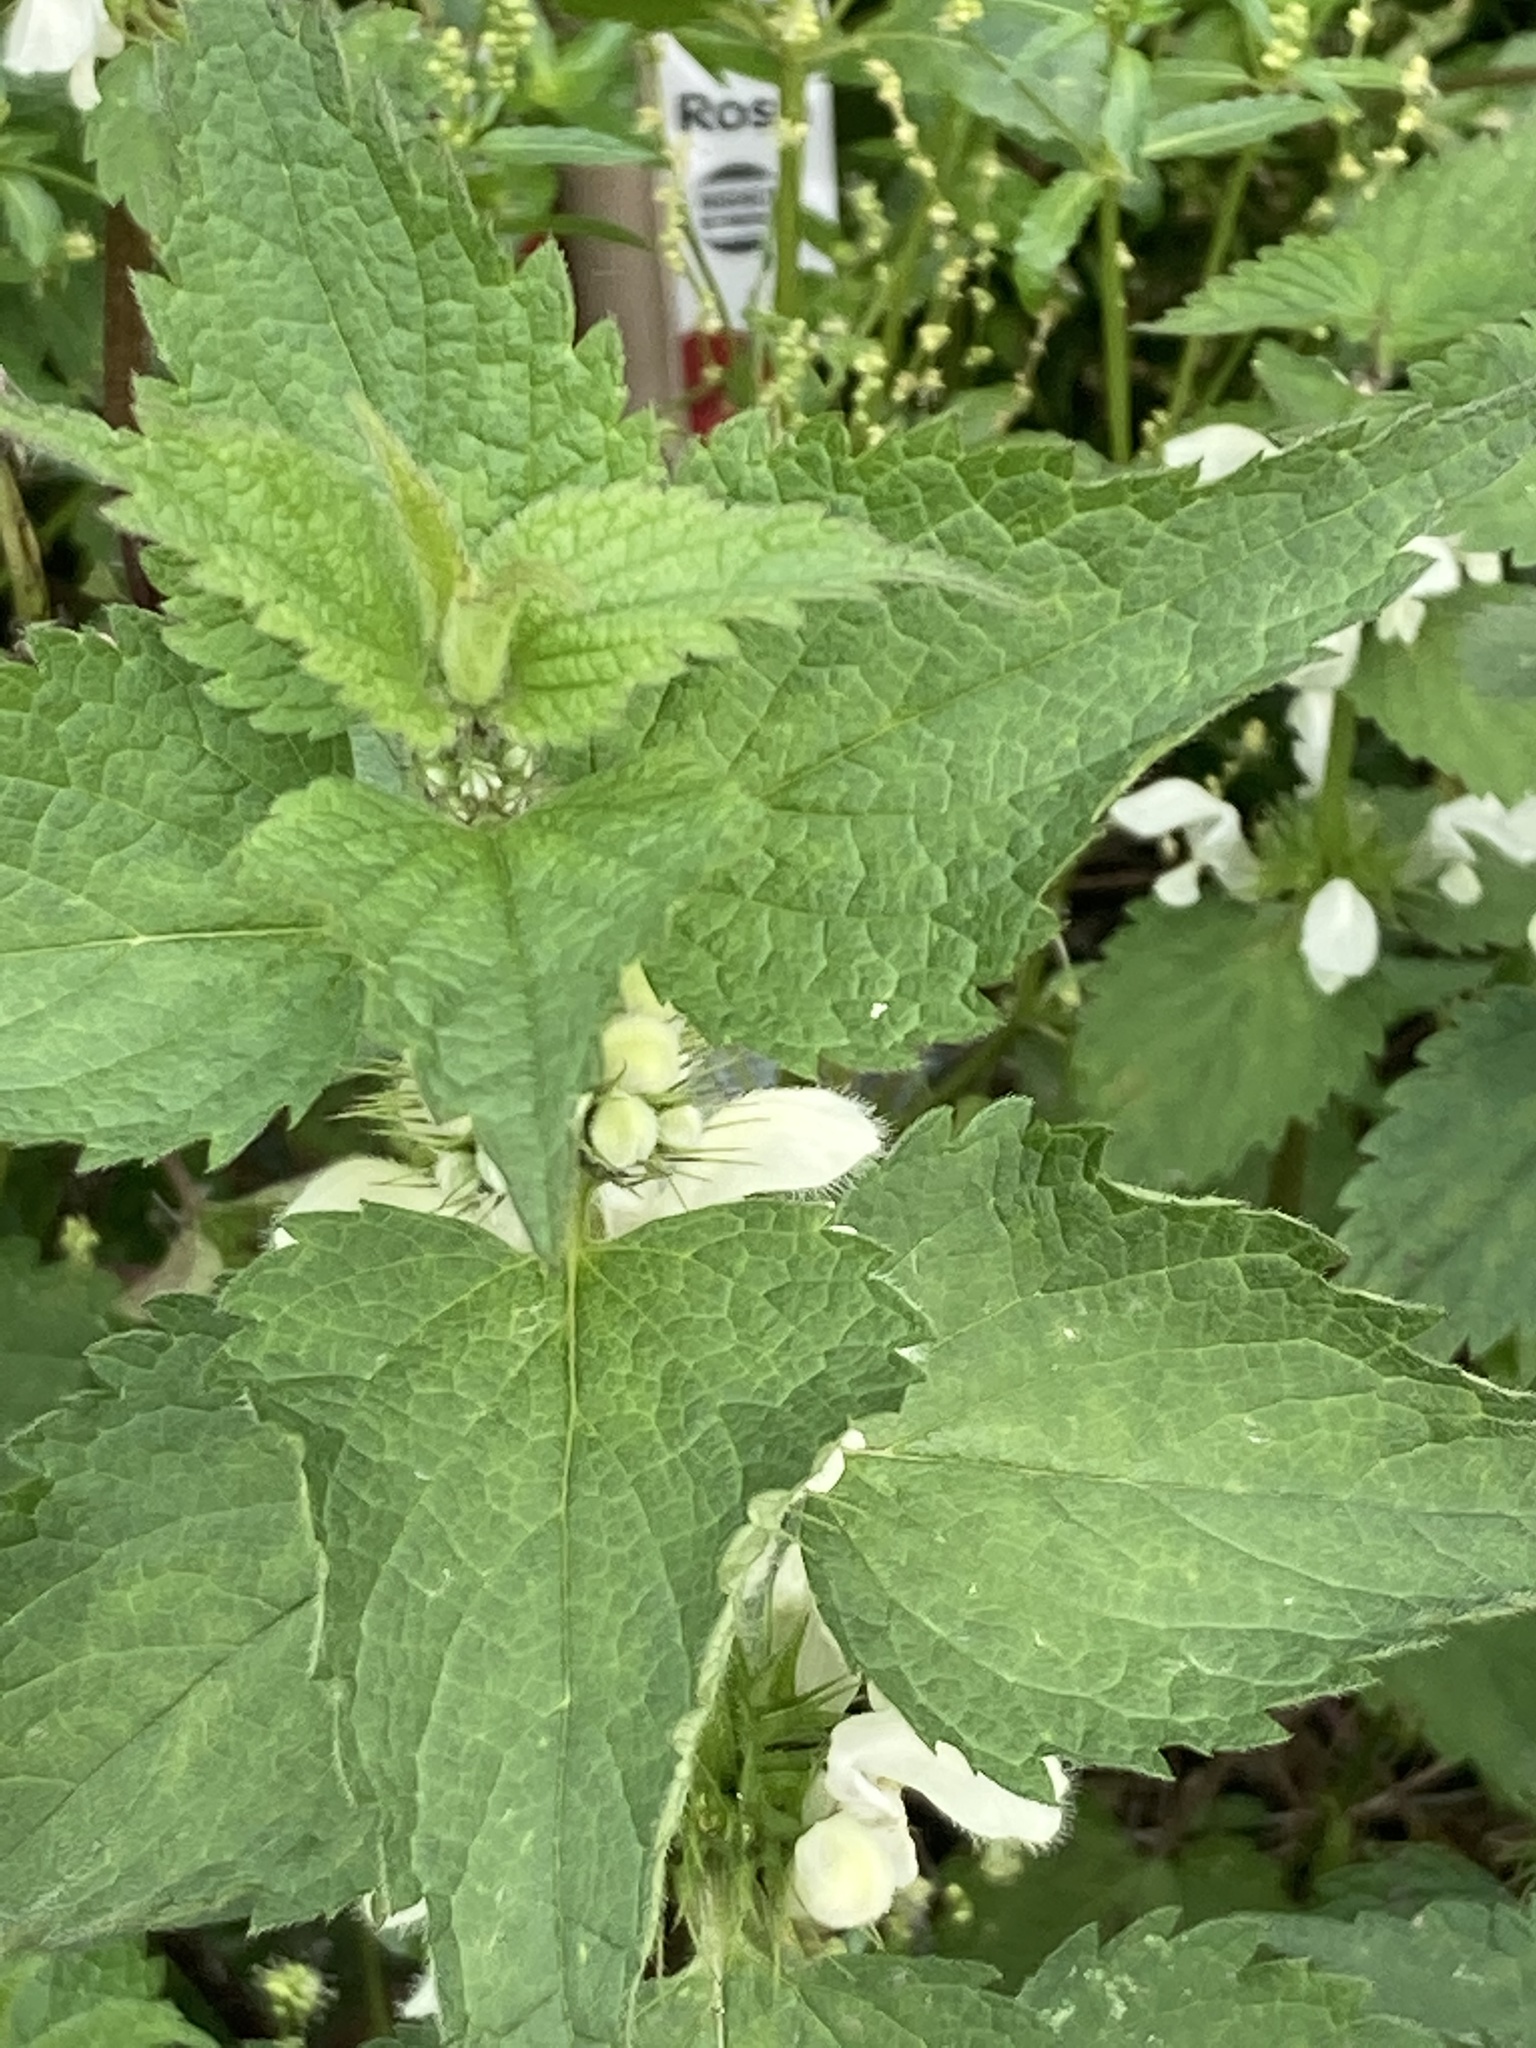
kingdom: Plantae
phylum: Tracheophyta
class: Magnoliopsida
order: Lamiales
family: Lamiaceae
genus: Lamium
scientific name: Lamium album
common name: White dead-nettle
